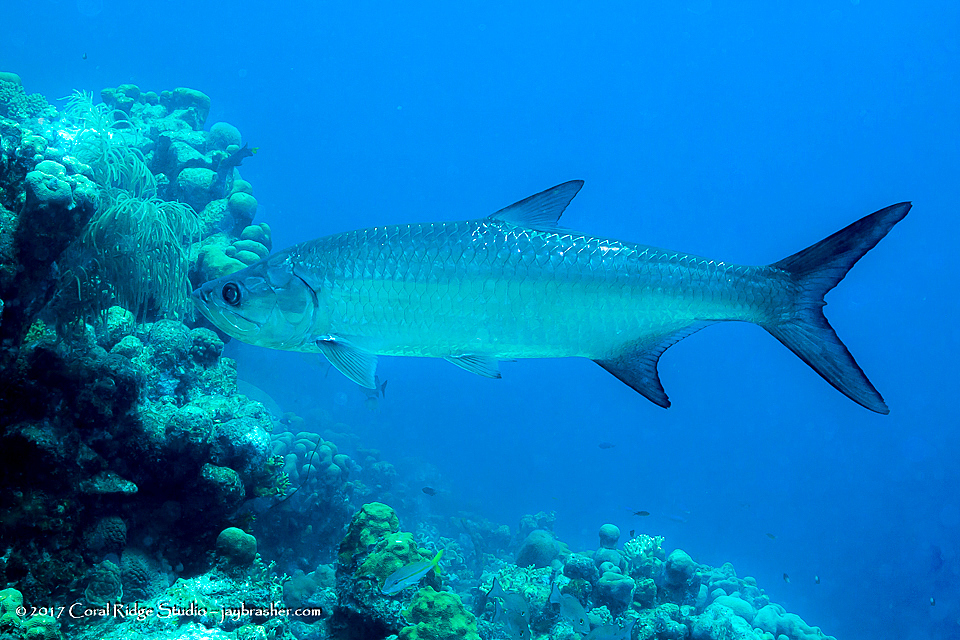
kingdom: Animalia
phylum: Chordata
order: Elopiformes
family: Megalopidae
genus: Megalops
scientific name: Megalops atlanticus
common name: Tarpon
